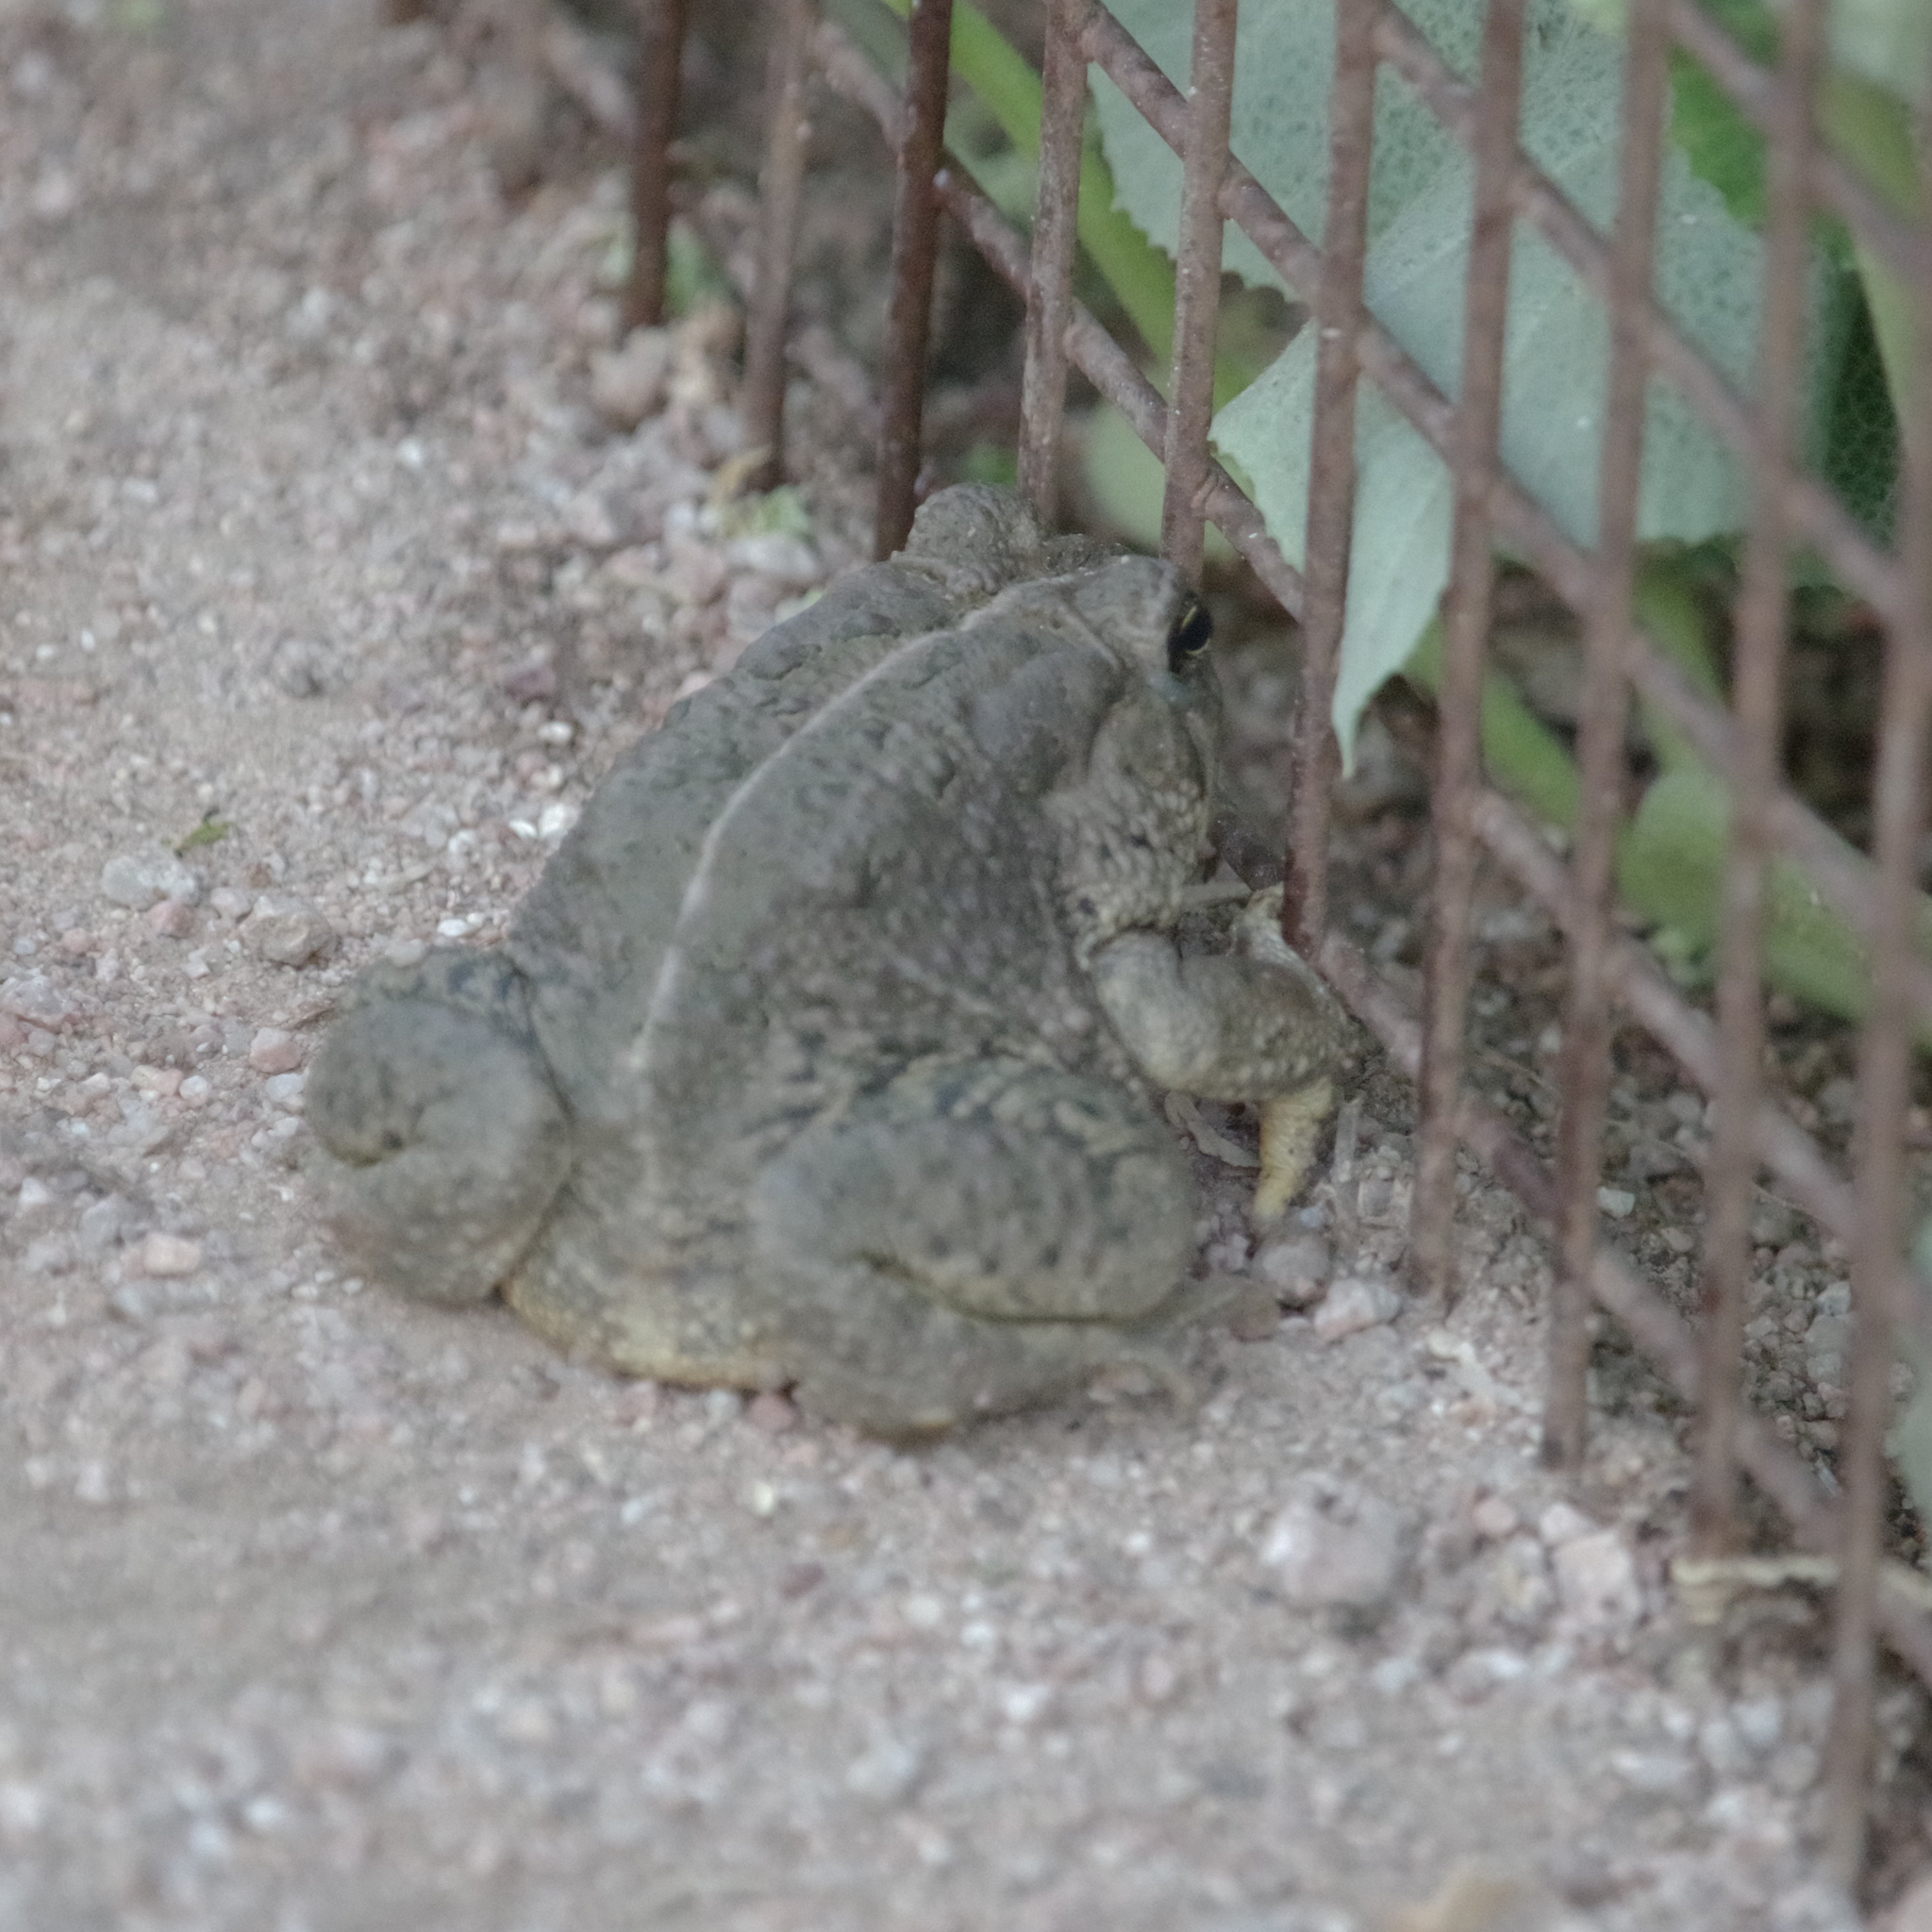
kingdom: Animalia
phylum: Chordata
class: Amphibia
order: Anura
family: Bufonidae
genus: Anaxyrus
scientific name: Anaxyrus woodhousii
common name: Woodhouse's toad
